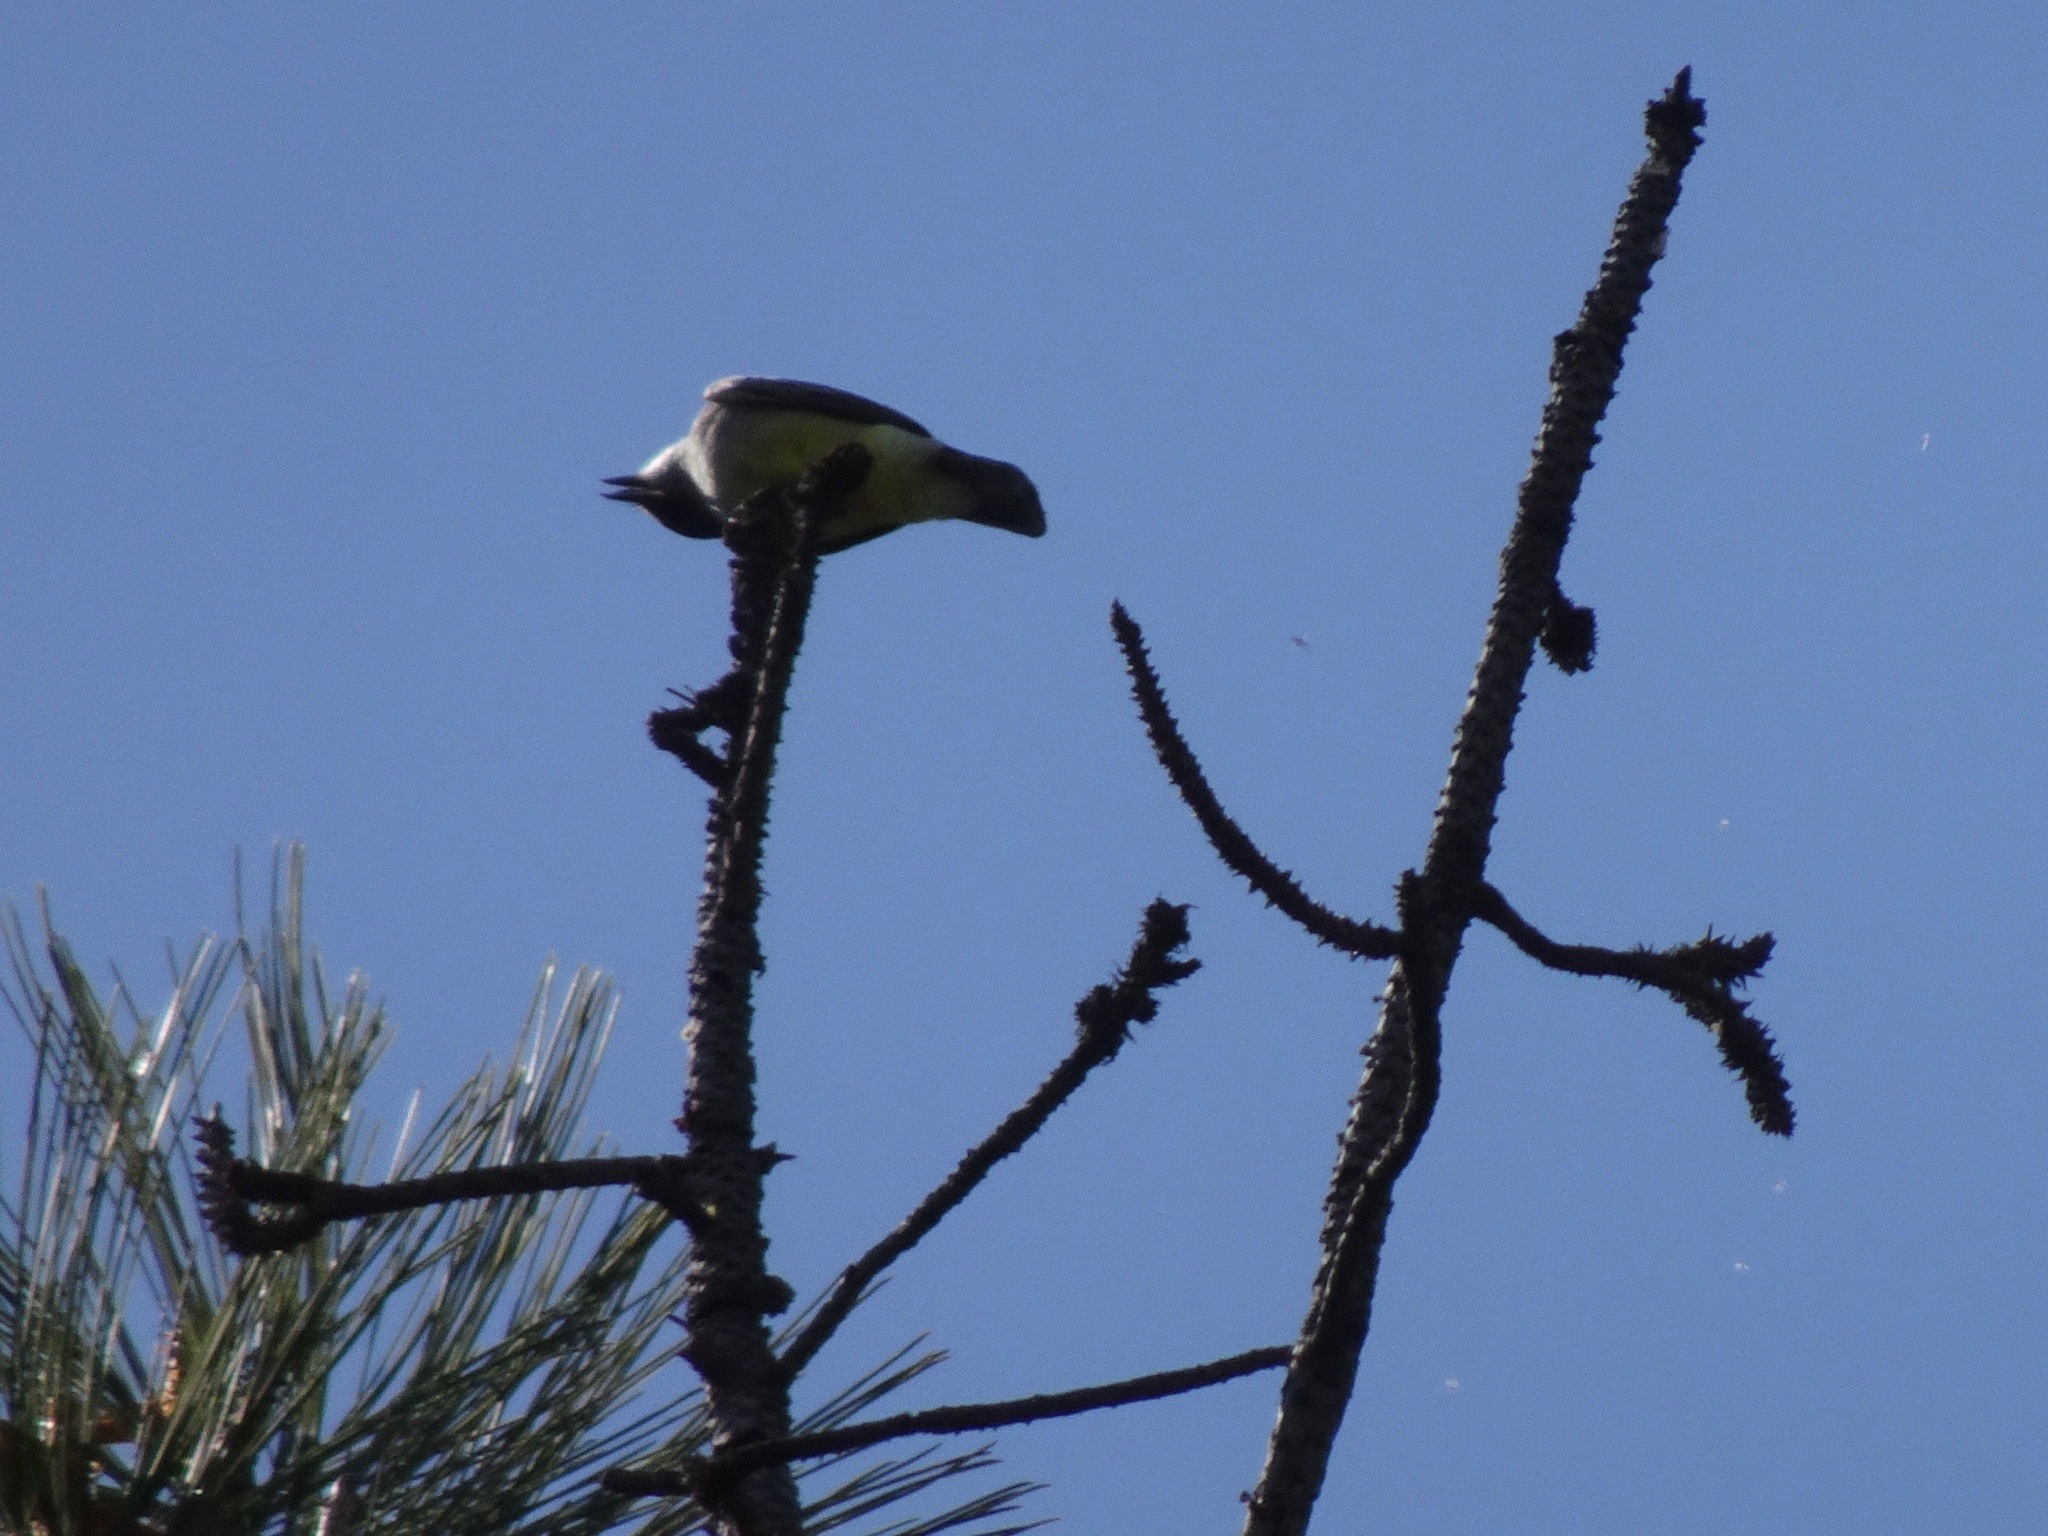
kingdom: Animalia
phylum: Chordata
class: Aves
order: Passeriformes
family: Tyrannidae
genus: Tyrannus
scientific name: Tyrannus
